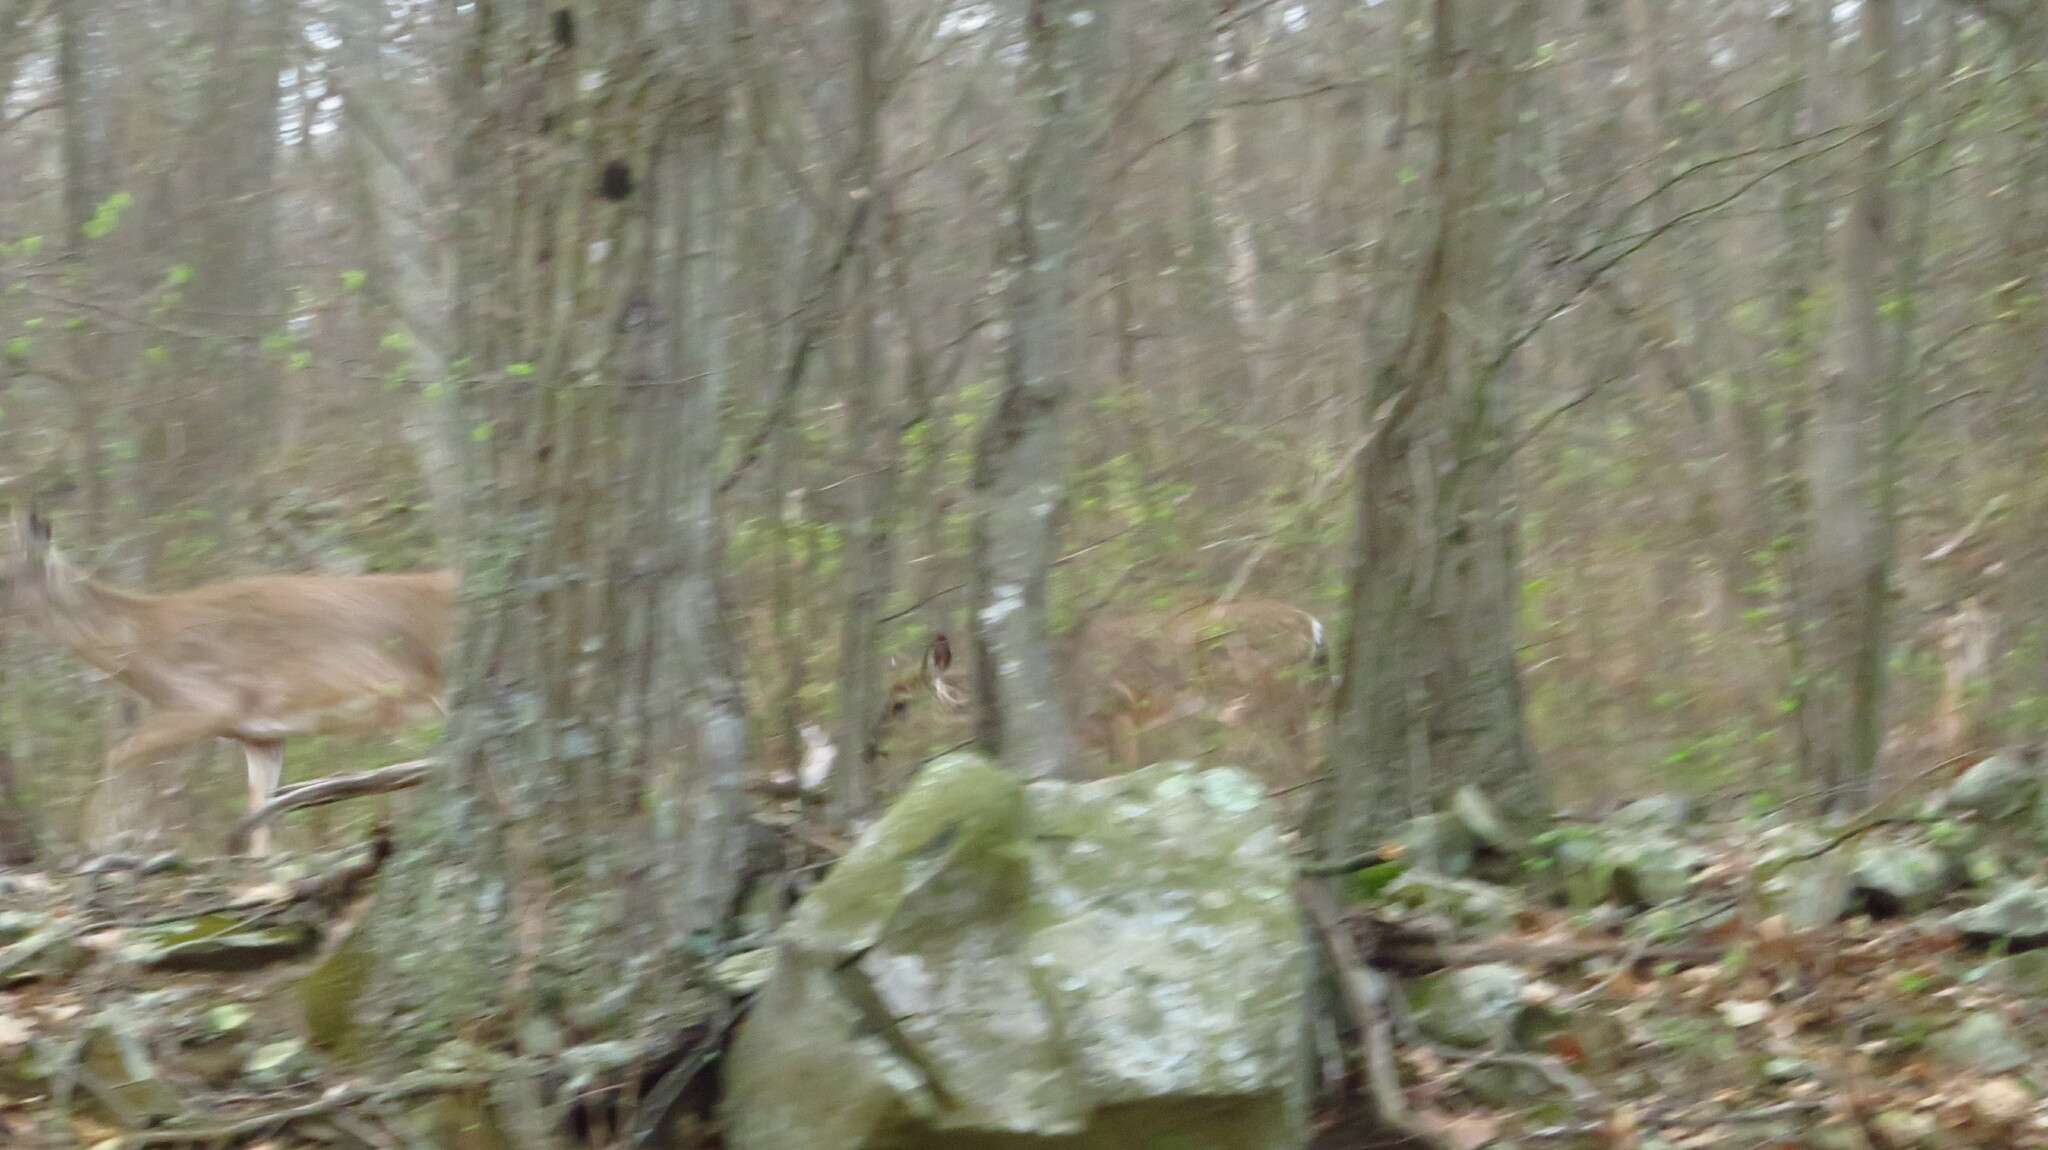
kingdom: Animalia
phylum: Chordata
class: Mammalia
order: Artiodactyla
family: Cervidae
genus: Odocoileus
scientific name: Odocoileus virginianus
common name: White-tailed deer
